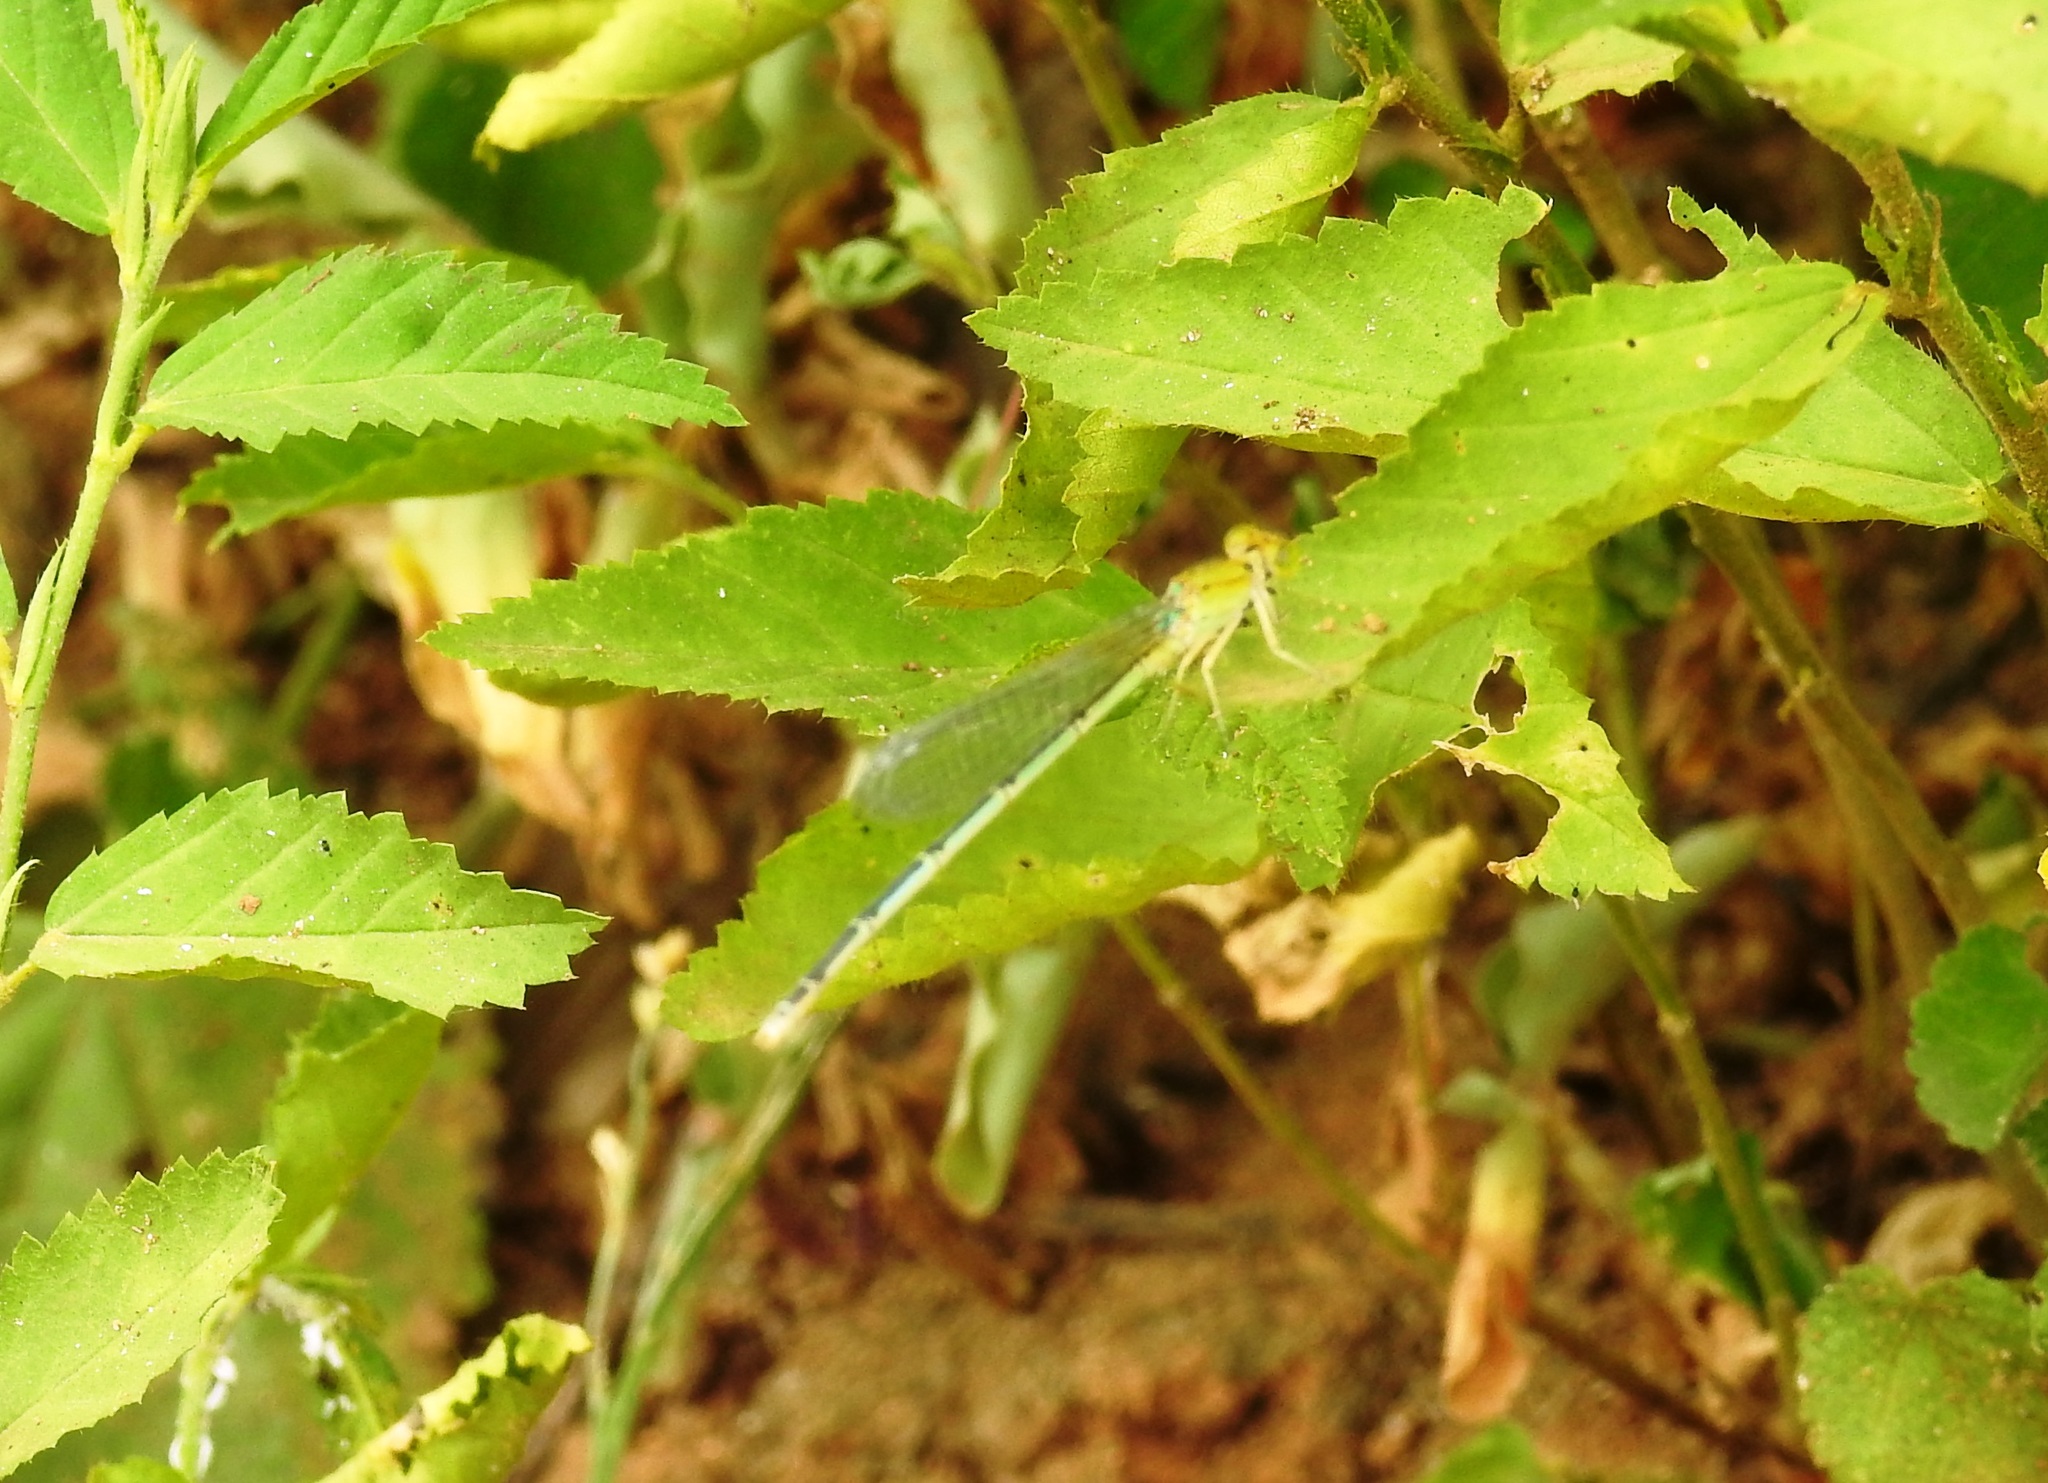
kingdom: Animalia
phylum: Arthropoda
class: Insecta
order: Odonata
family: Coenagrionidae
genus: Pseudagrion
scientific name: Pseudagrion decorum
